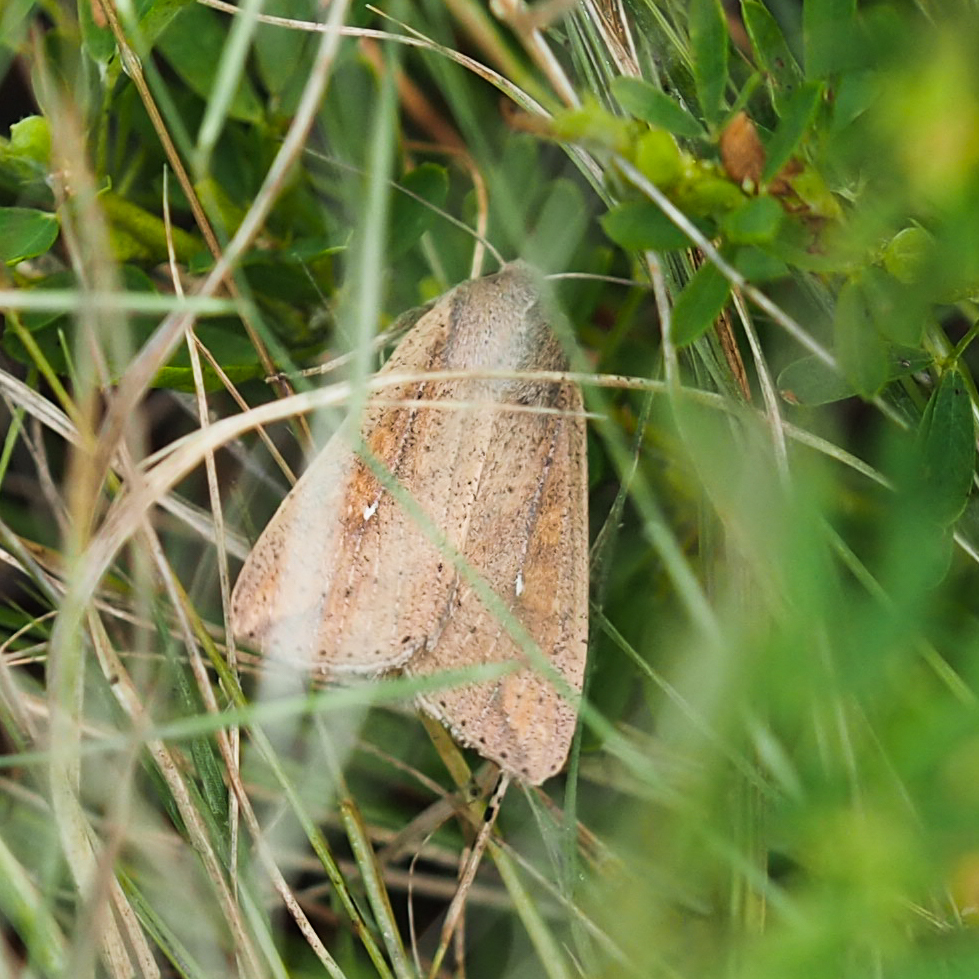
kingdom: Animalia
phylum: Arthropoda
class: Insecta
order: Lepidoptera
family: Noctuidae
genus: Mythimna
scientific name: Mythimna unipuncta
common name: White-speck
